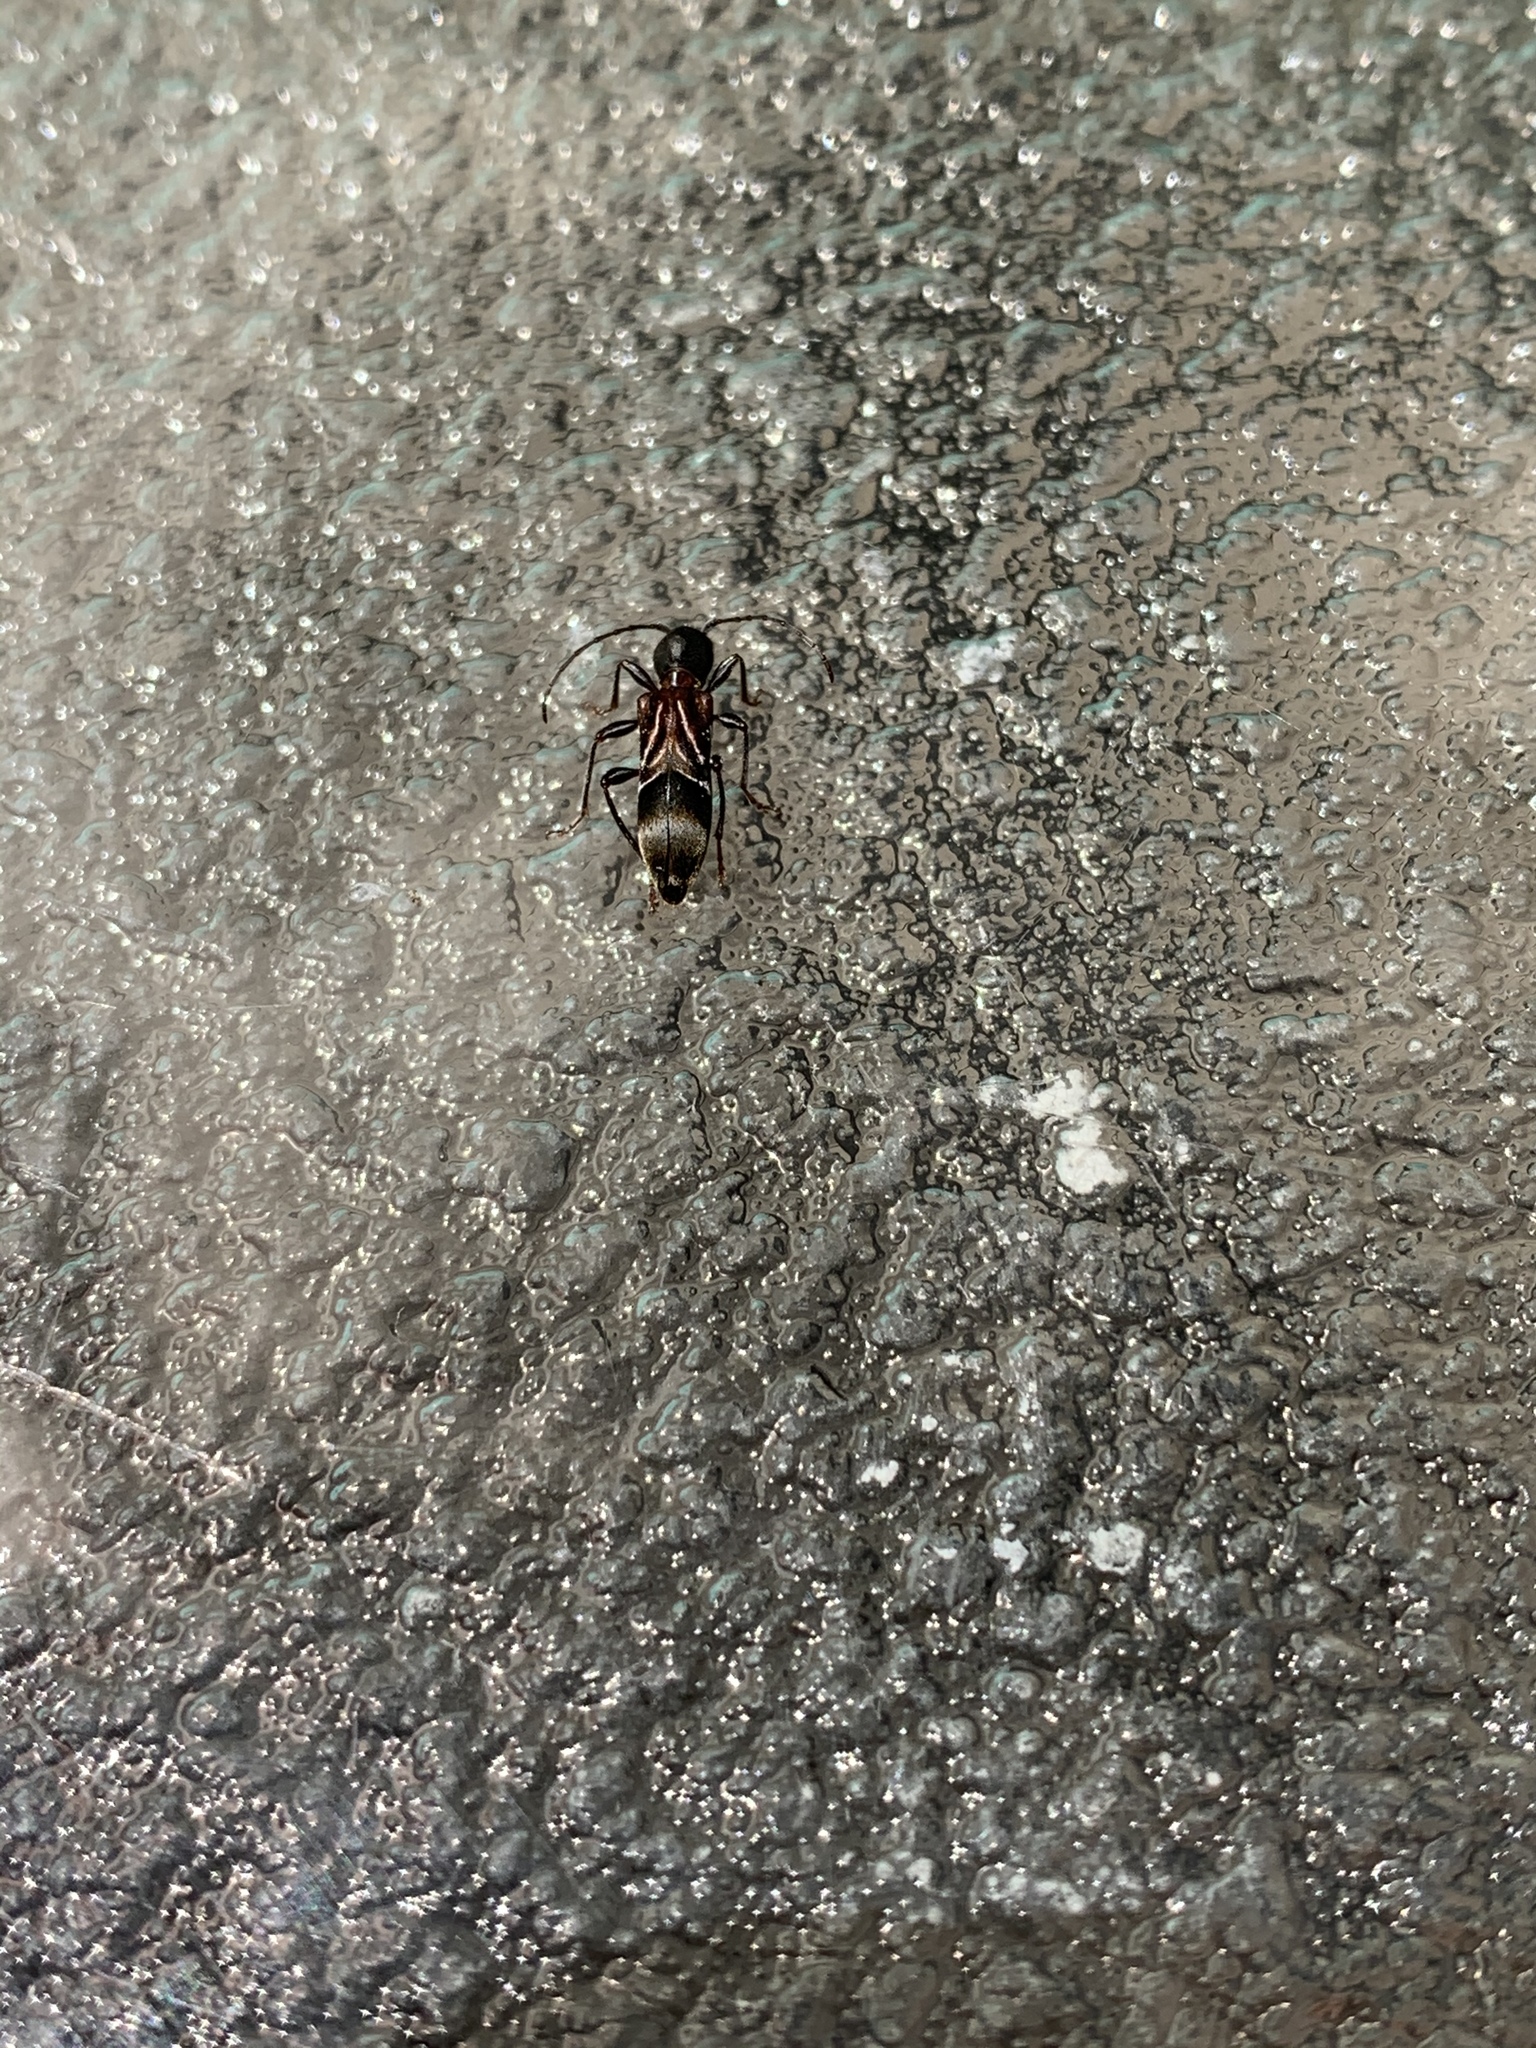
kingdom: Animalia
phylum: Arthropoda
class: Insecta
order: Coleoptera
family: Cerambycidae
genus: Cyrtophorus
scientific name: Cyrtophorus verrucosus
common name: Ant-like longhorn beetle
